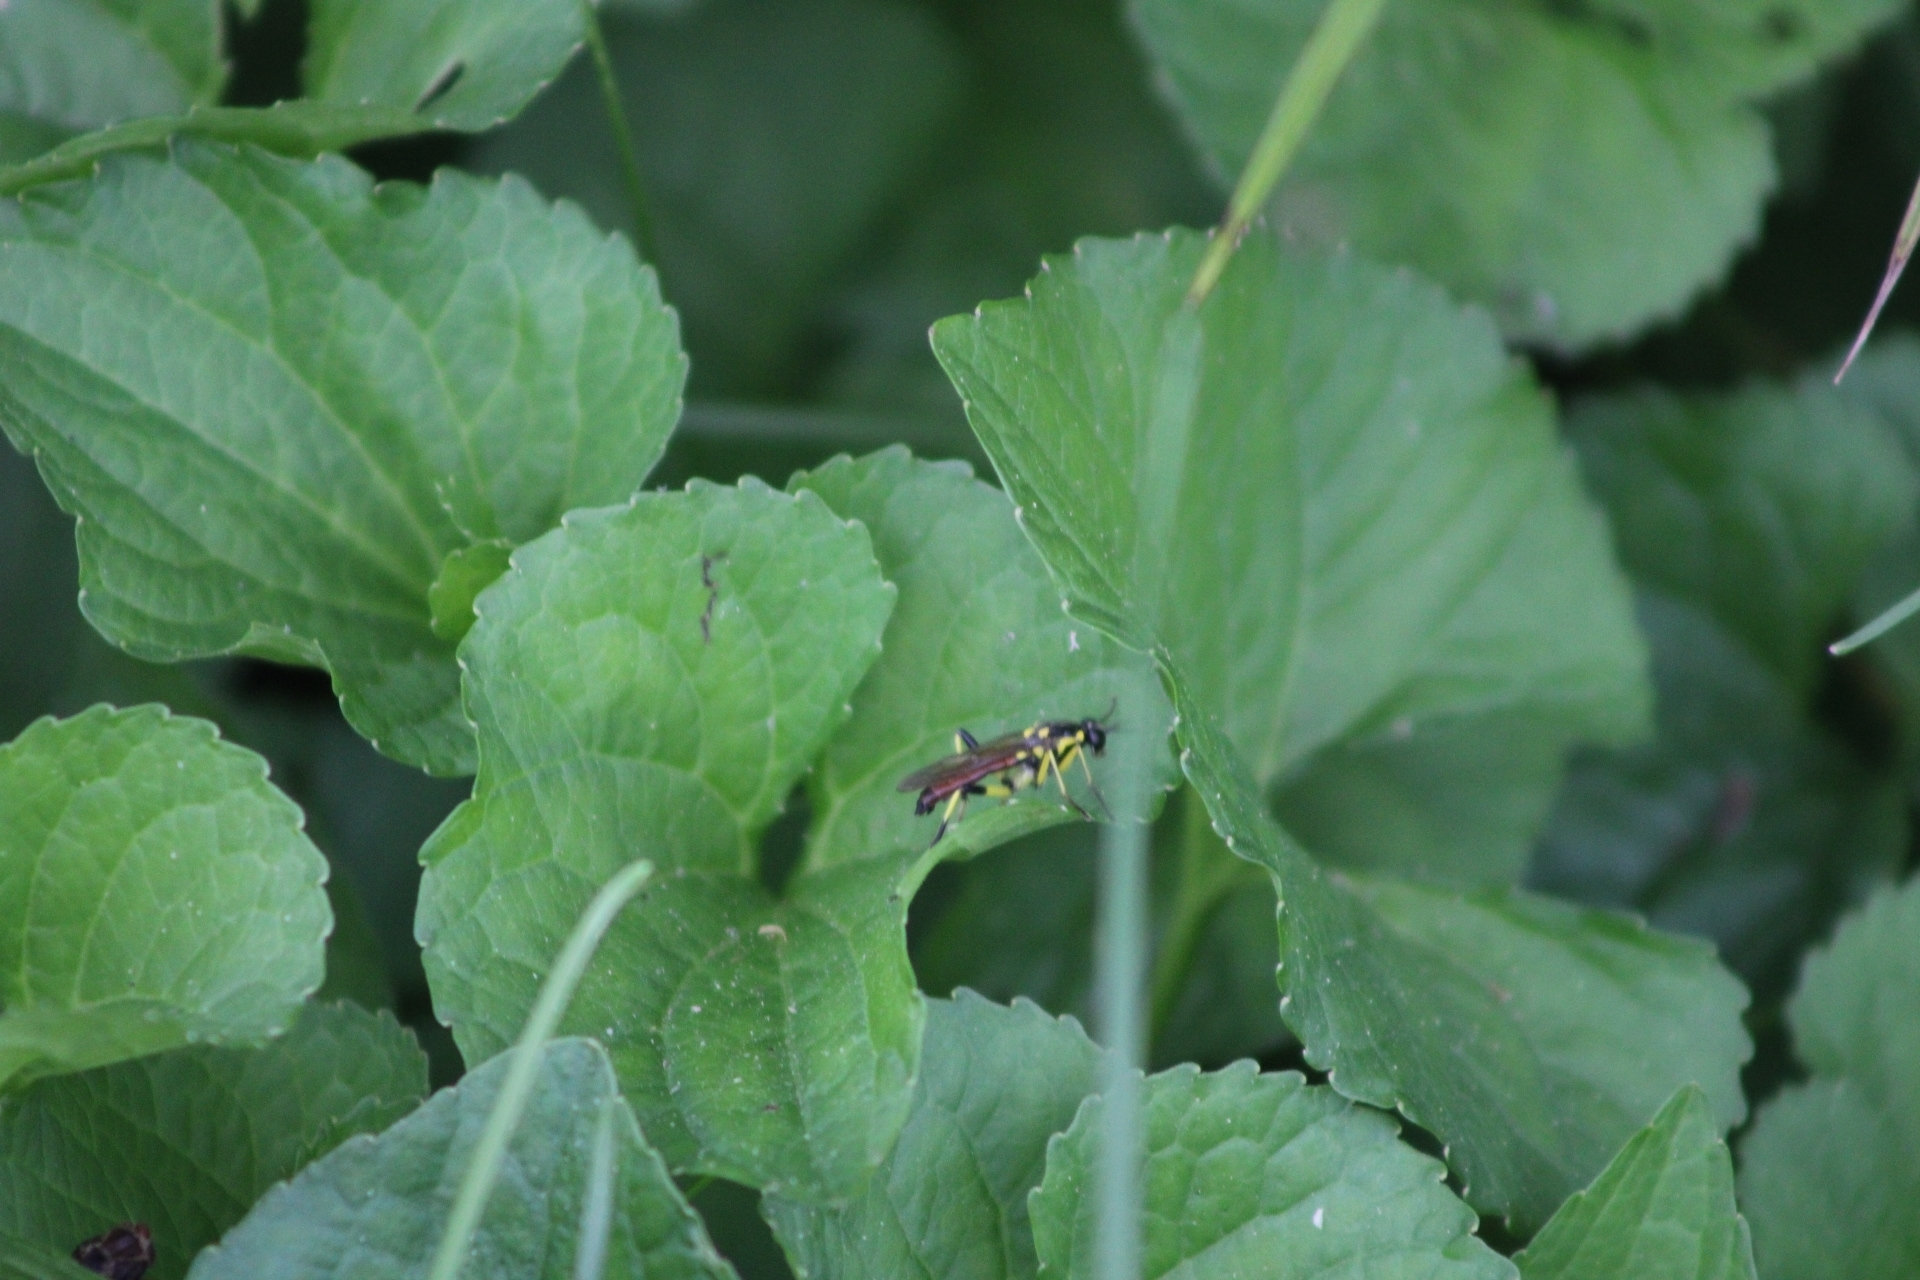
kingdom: Animalia
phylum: Arthropoda
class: Insecta
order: Diptera
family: Xylomyidae
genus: Xylomya
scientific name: Xylomya tenthredinoides
